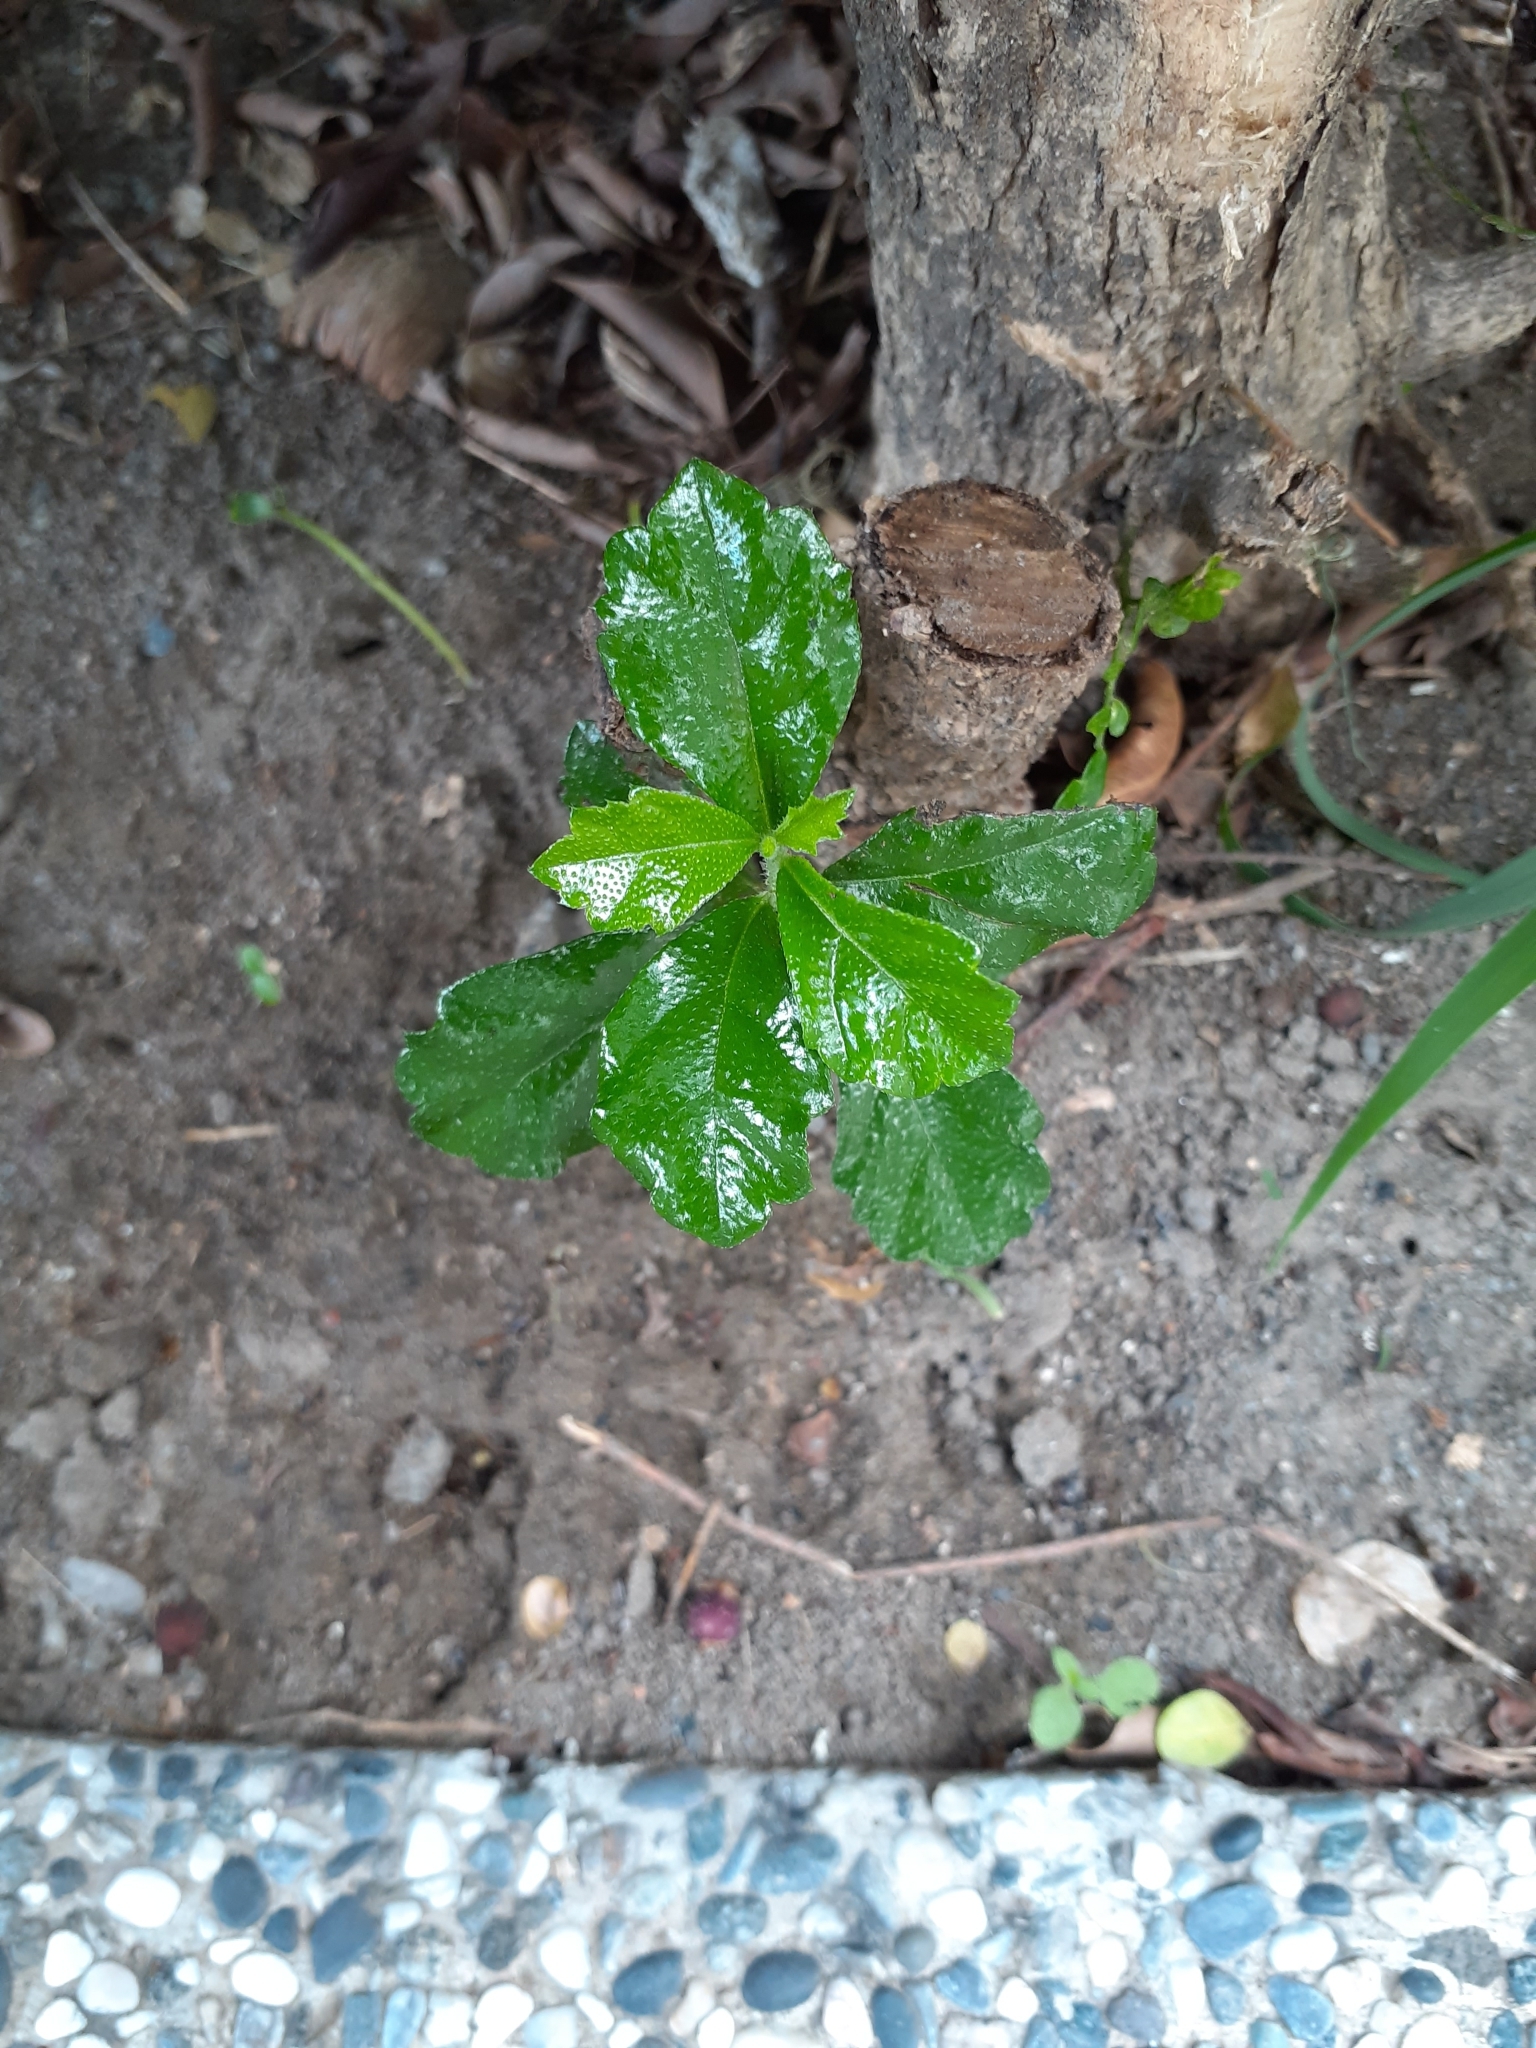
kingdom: Plantae
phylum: Tracheophyta
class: Magnoliopsida
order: Boraginales
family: Ehretiaceae
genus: Ehretia
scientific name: Ehretia microphylla
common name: Fukien-tea
